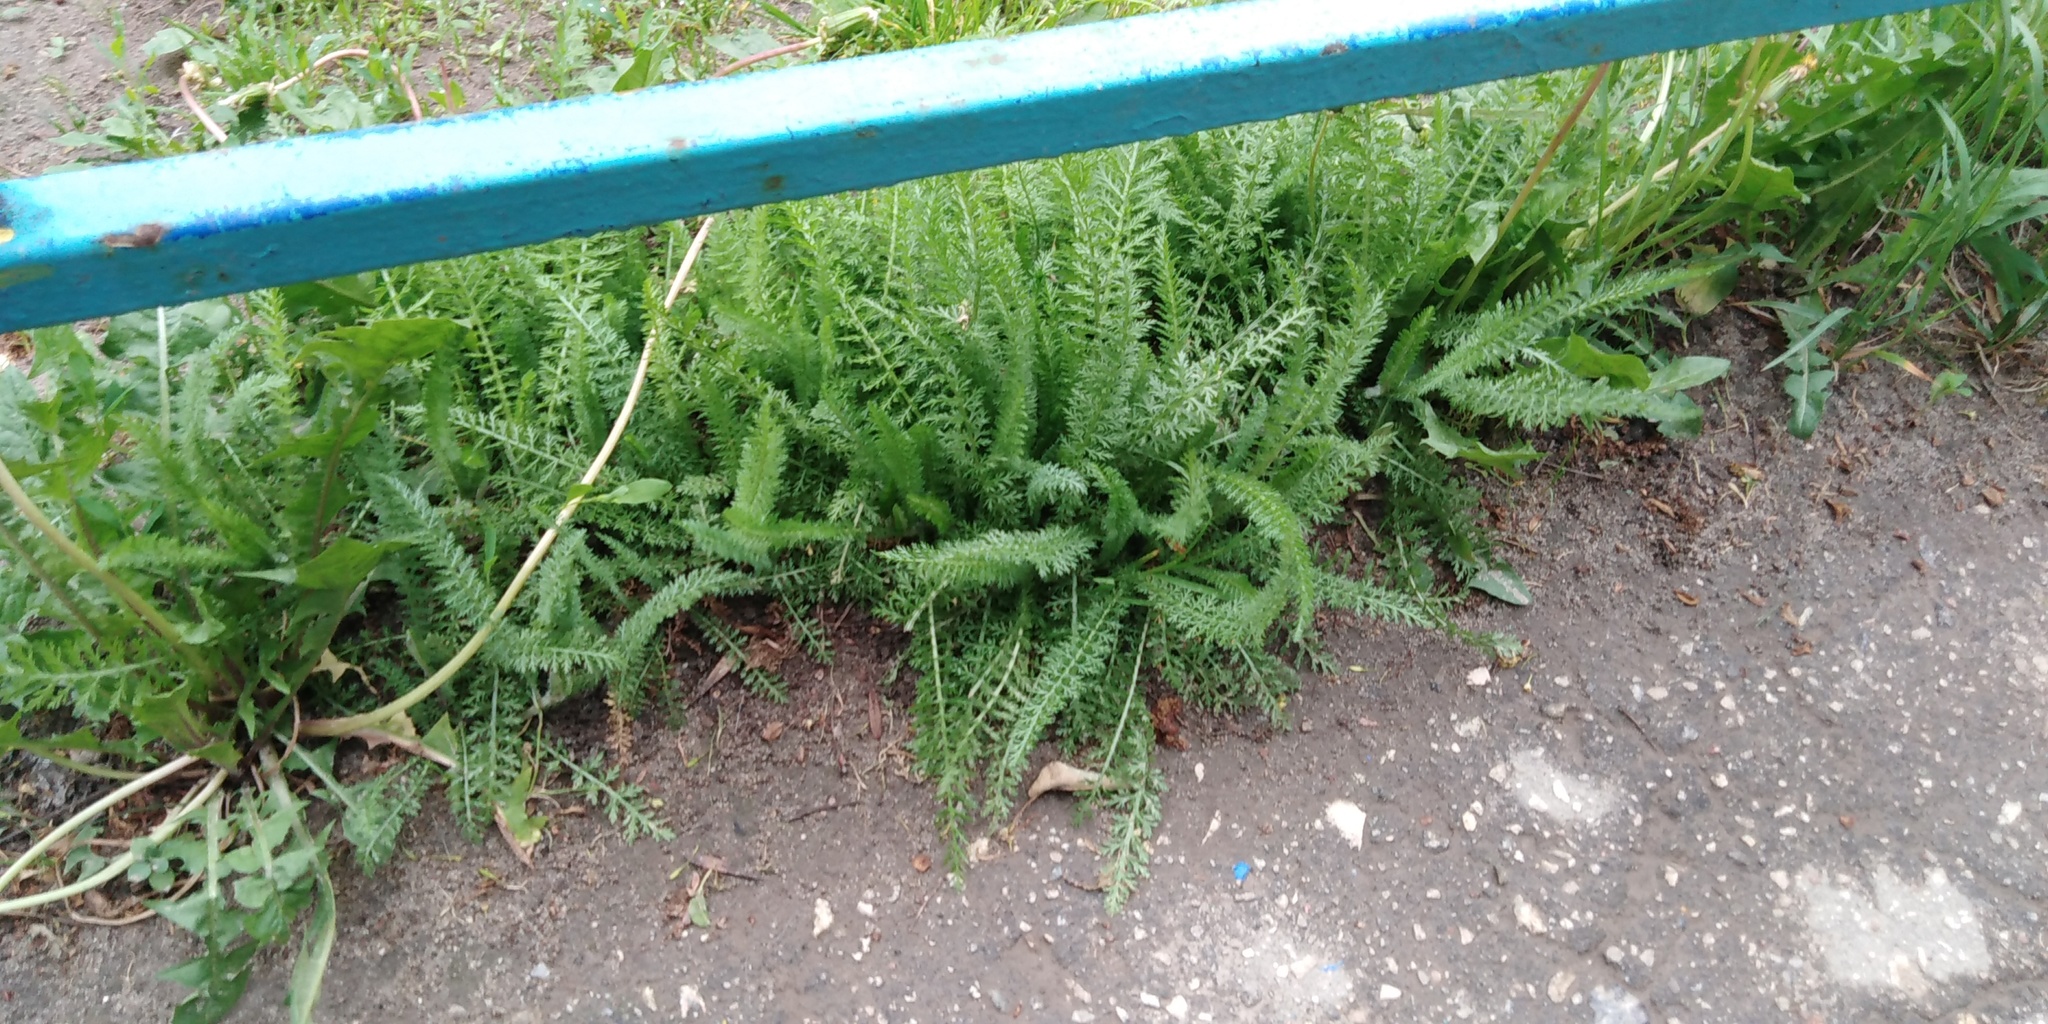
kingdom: Plantae
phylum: Tracheophyta
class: Magnoliopsida
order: Asterales
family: Asteraceae
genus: Achillea
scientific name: Achillea millefolium
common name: Yarrow
